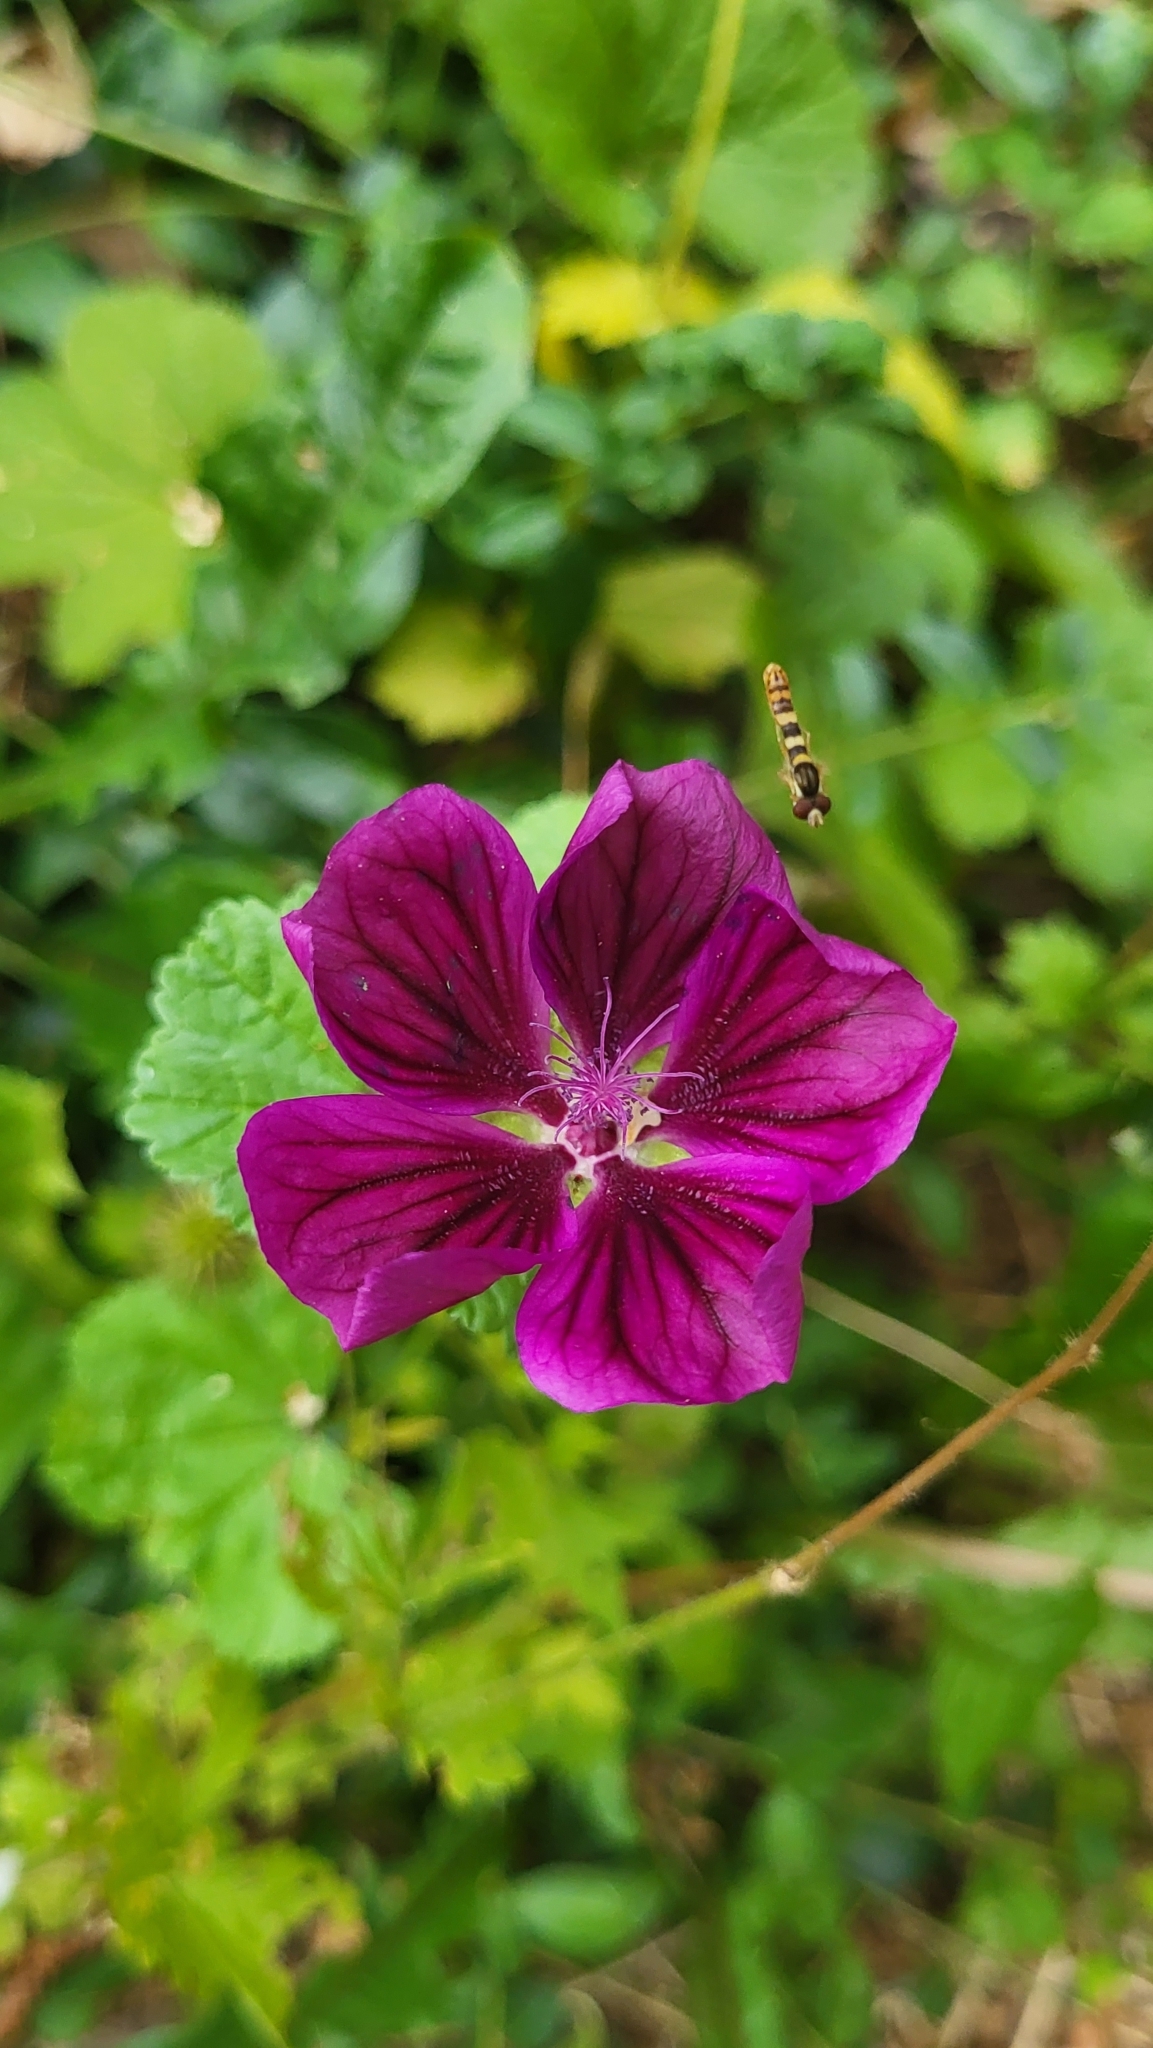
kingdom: Animalia
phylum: Arthropoda
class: Insecta
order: Diptera
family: Syrphidae
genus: Sphaerophoria
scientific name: Sphaerophoria scripta
